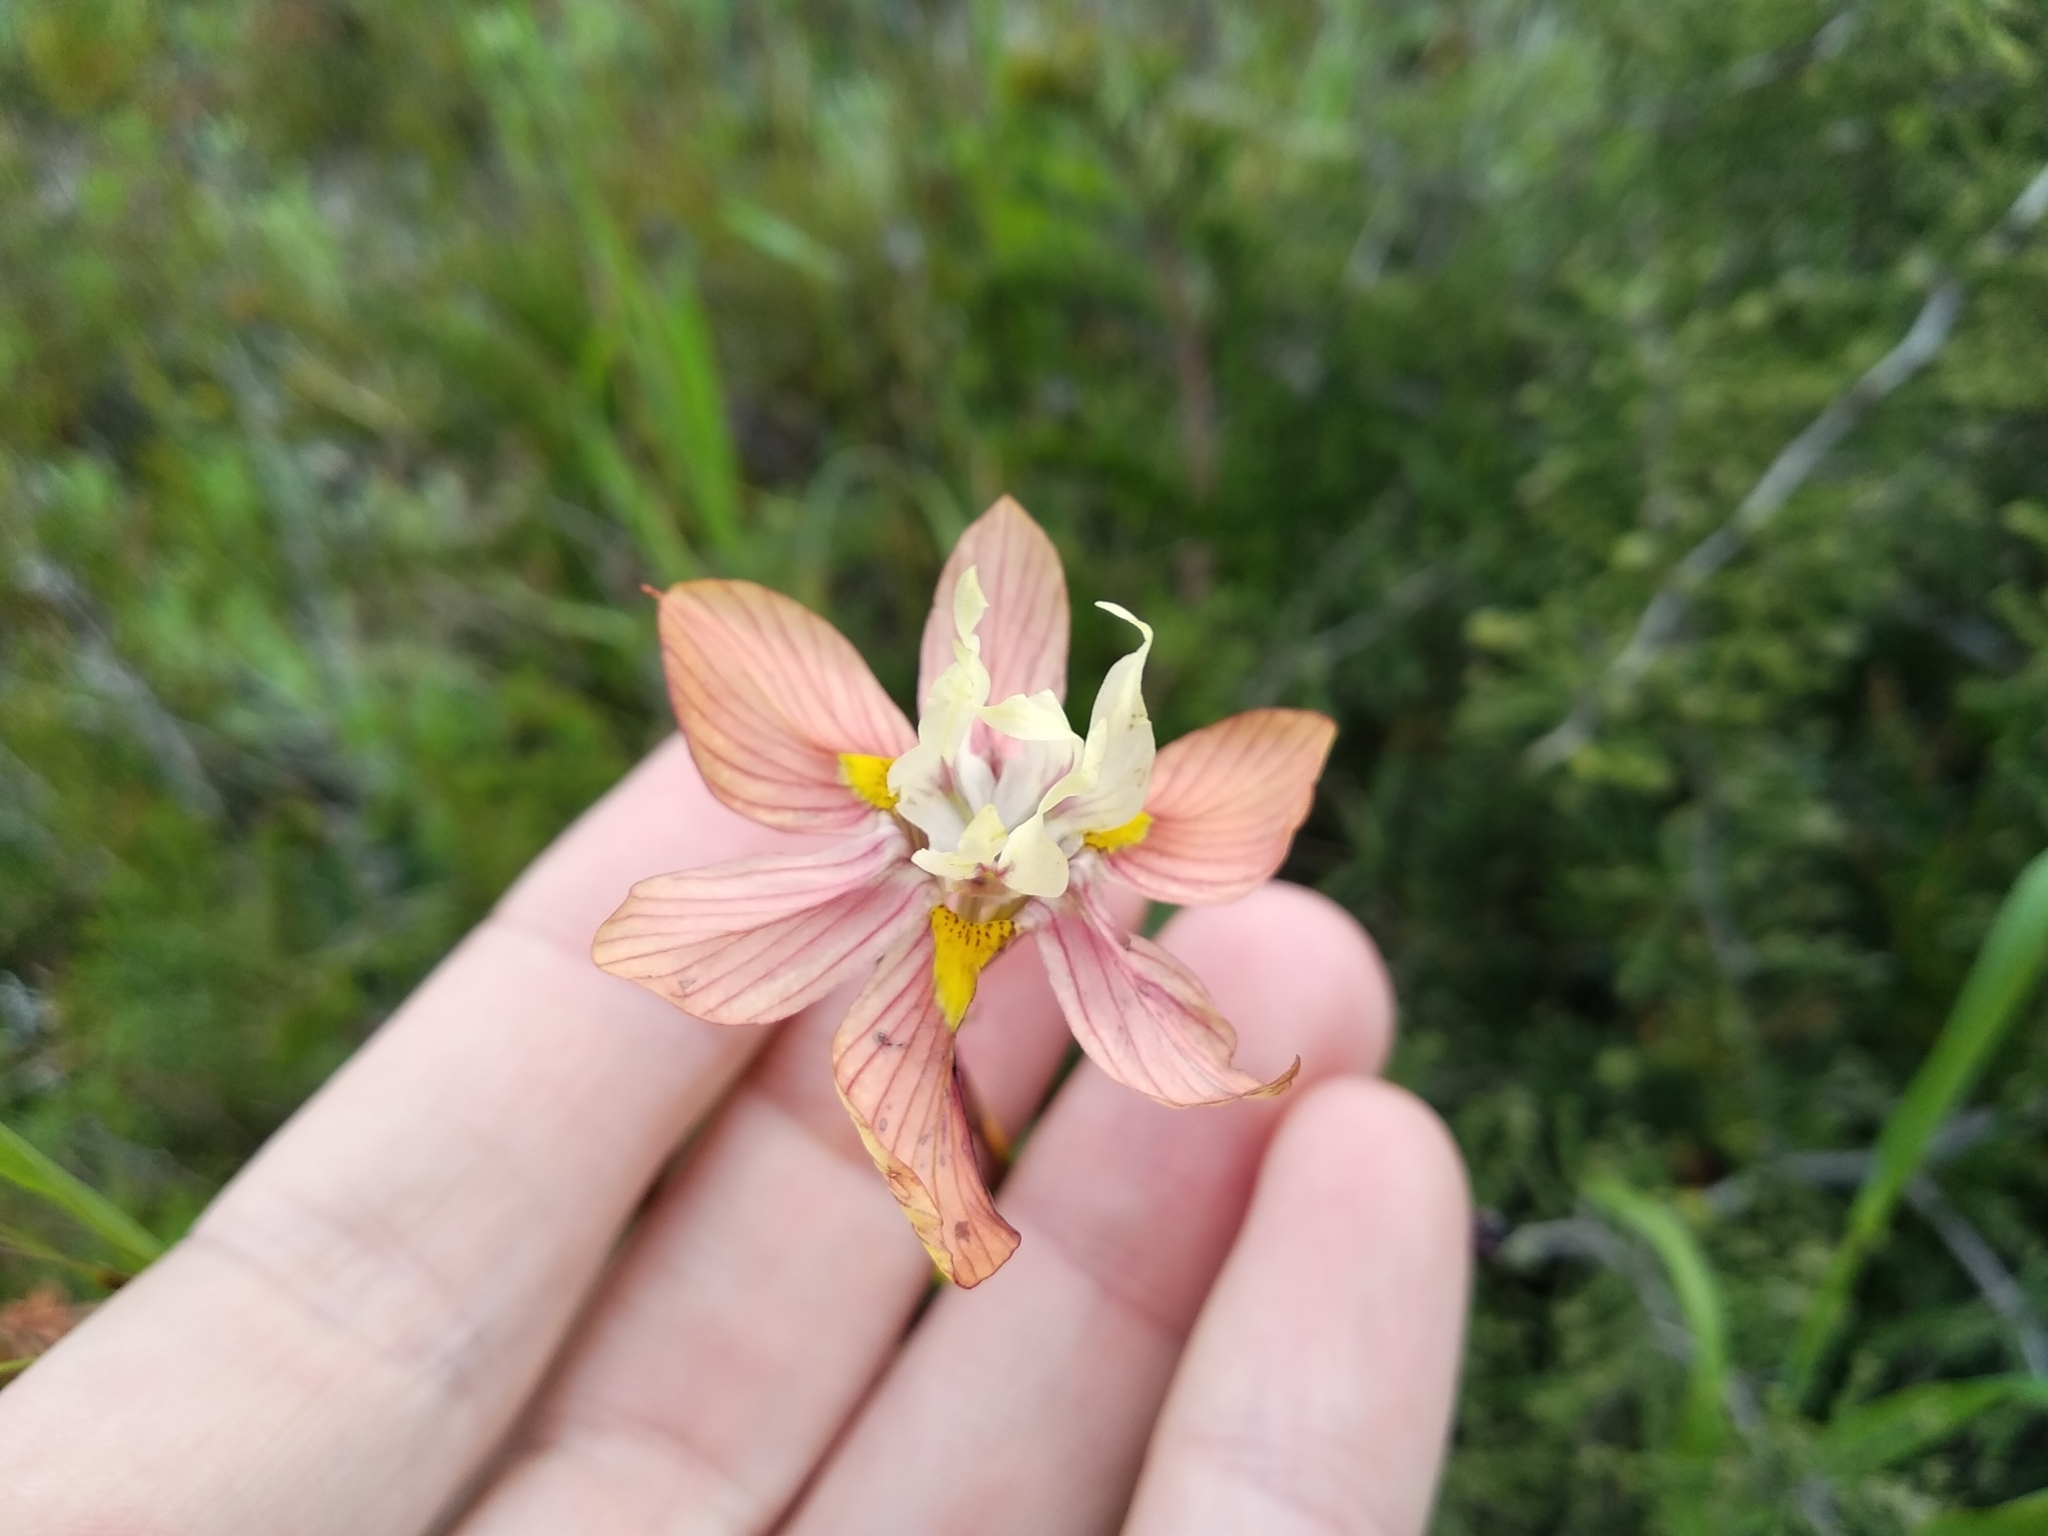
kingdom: Plantae
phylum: Tracheophyta
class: Liliopsida
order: Asparagales
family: Iridaceae
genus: Moraea
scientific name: Moraea gawleri
